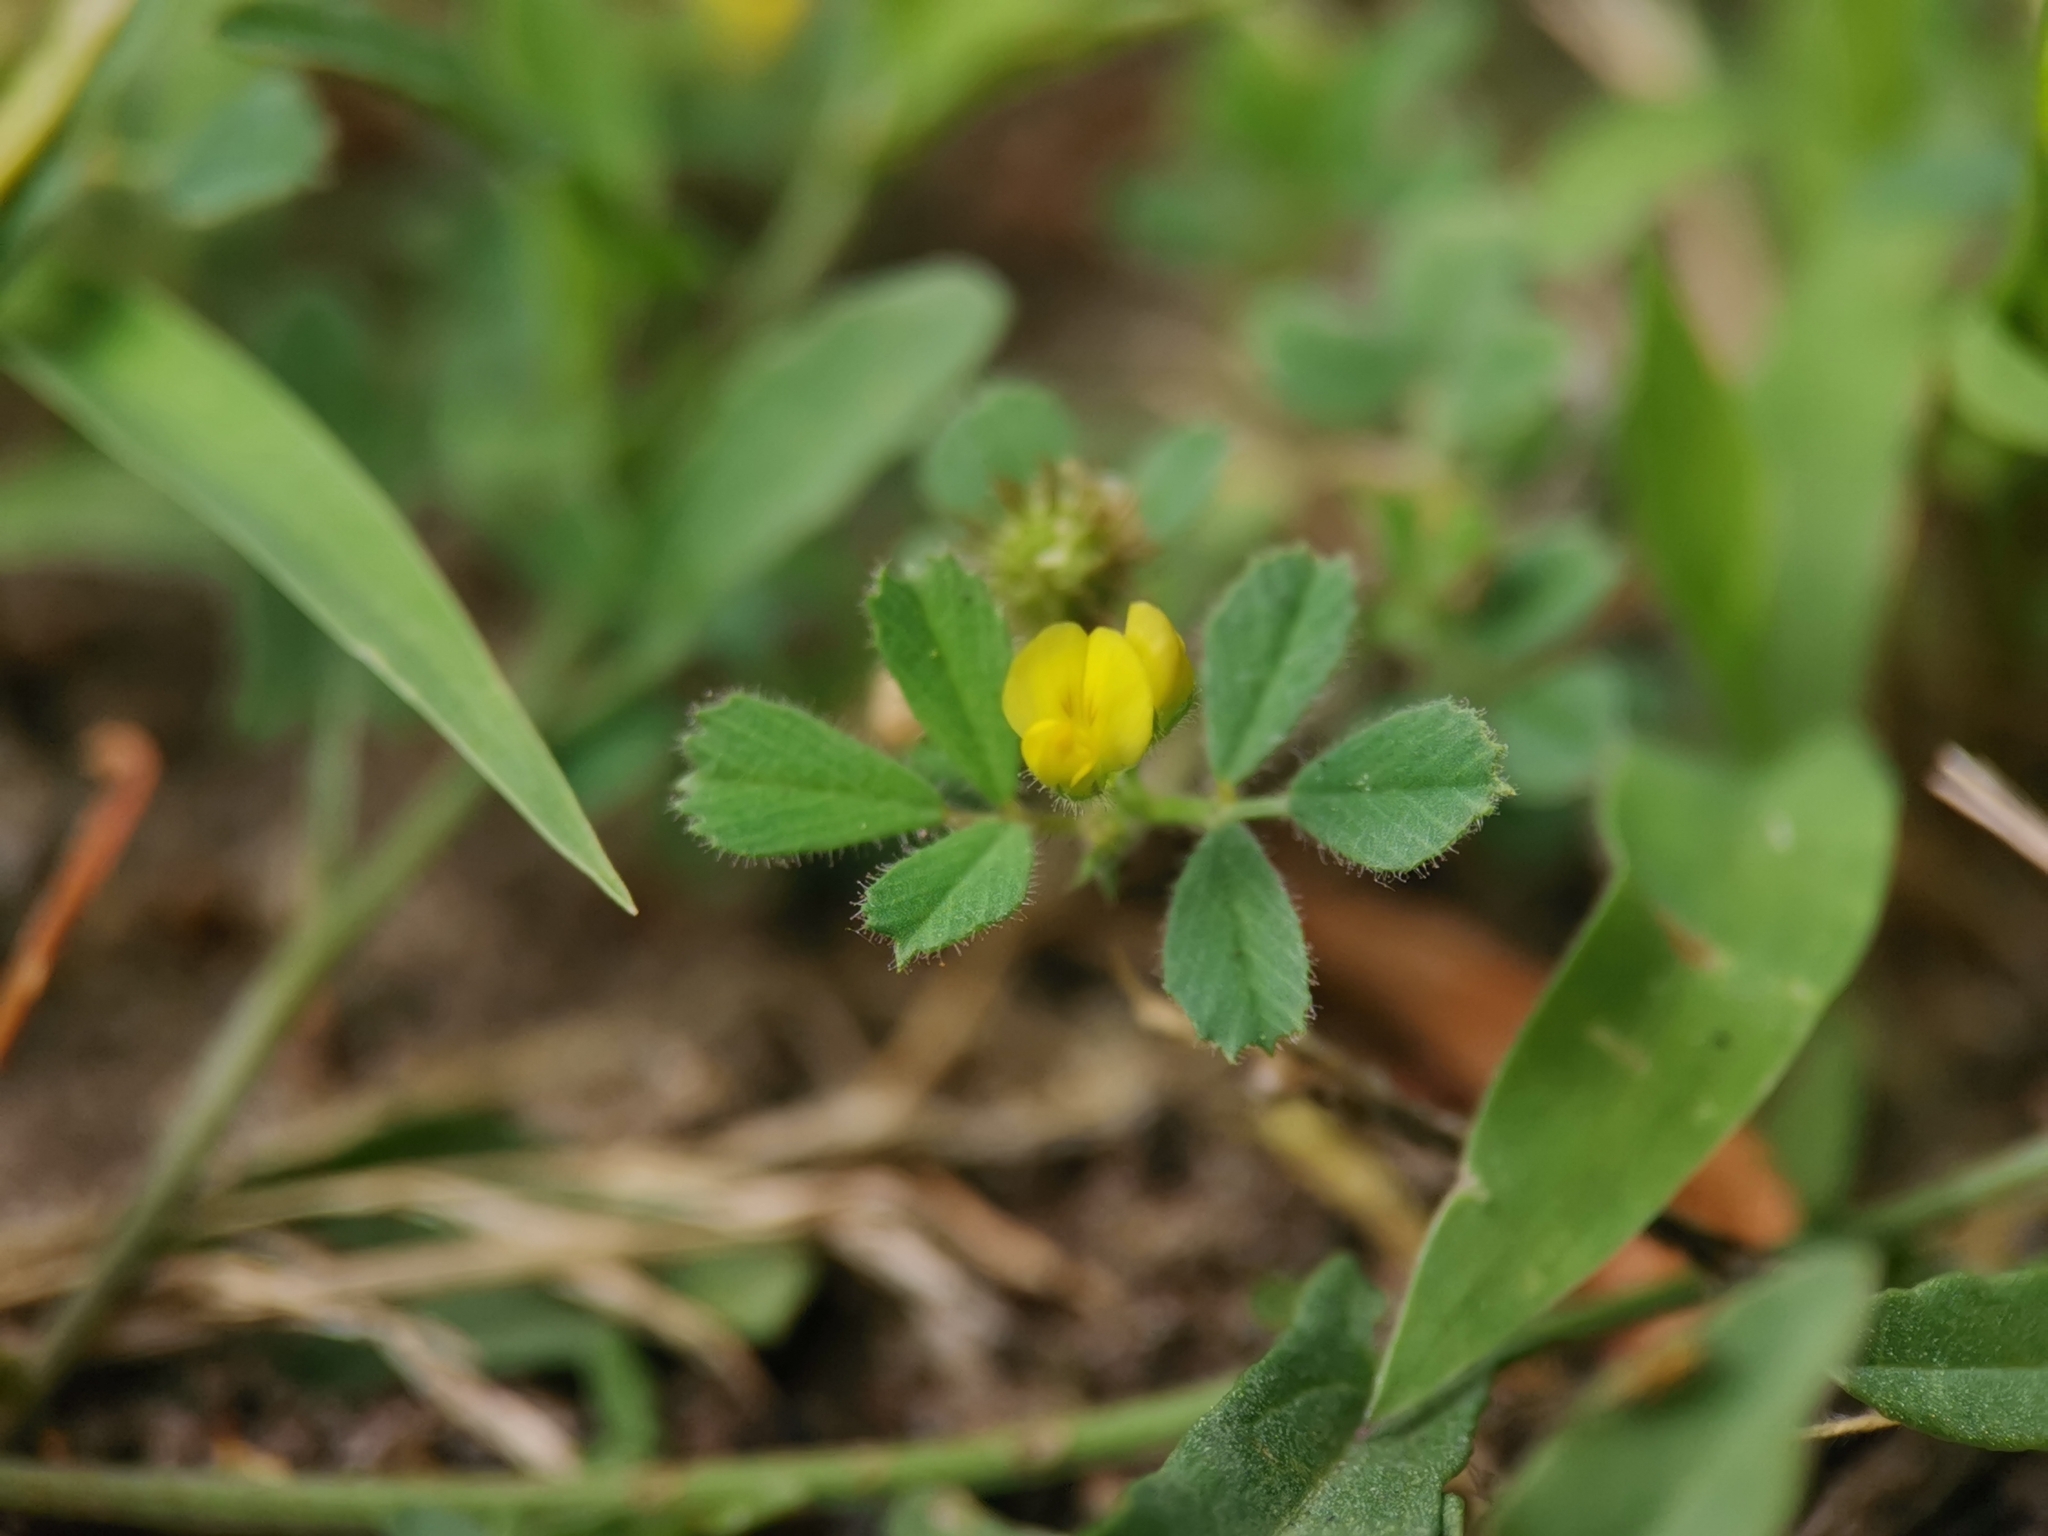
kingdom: Plantae
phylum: Tracheophyta
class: Magnoliopsida
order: Fabales
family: Fabaceae
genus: Medicago
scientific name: Medicago minima
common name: Little bur-clover
